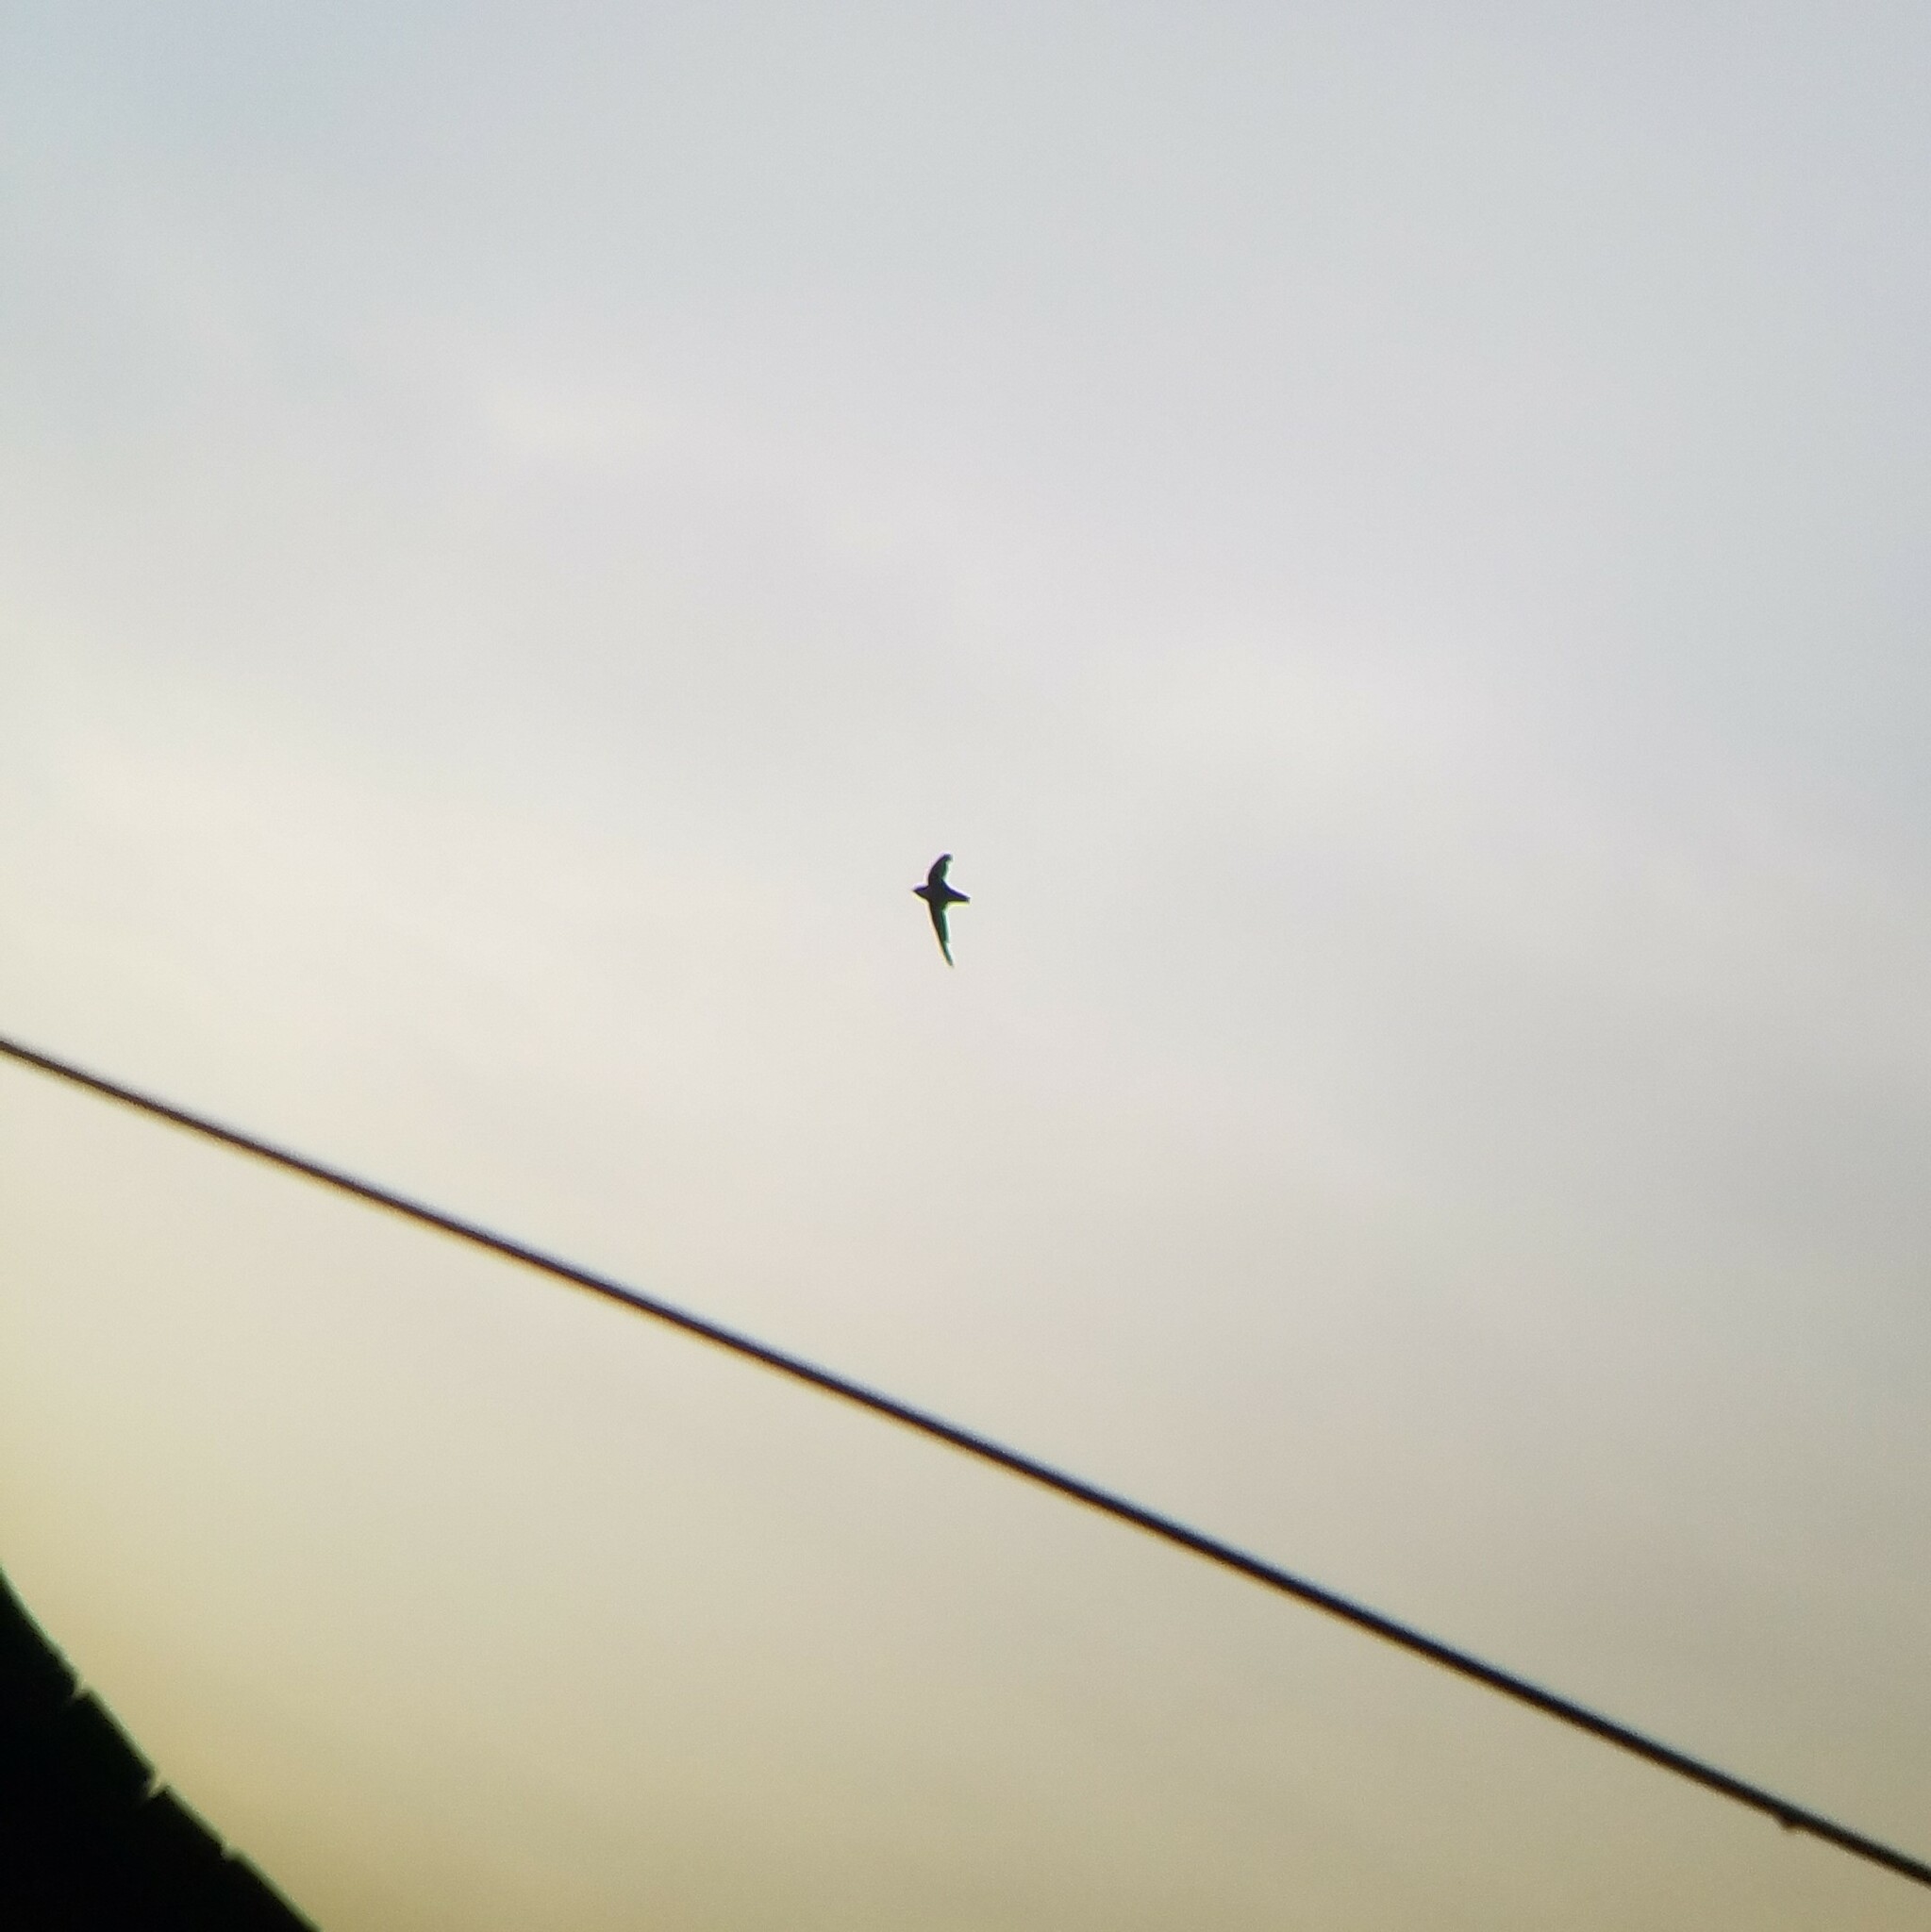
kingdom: Animalia
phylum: Chordata
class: Aves
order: Apodiformes
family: Apodidae
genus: Chaetura
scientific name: Chaetura pelagica
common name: Chimney swift
